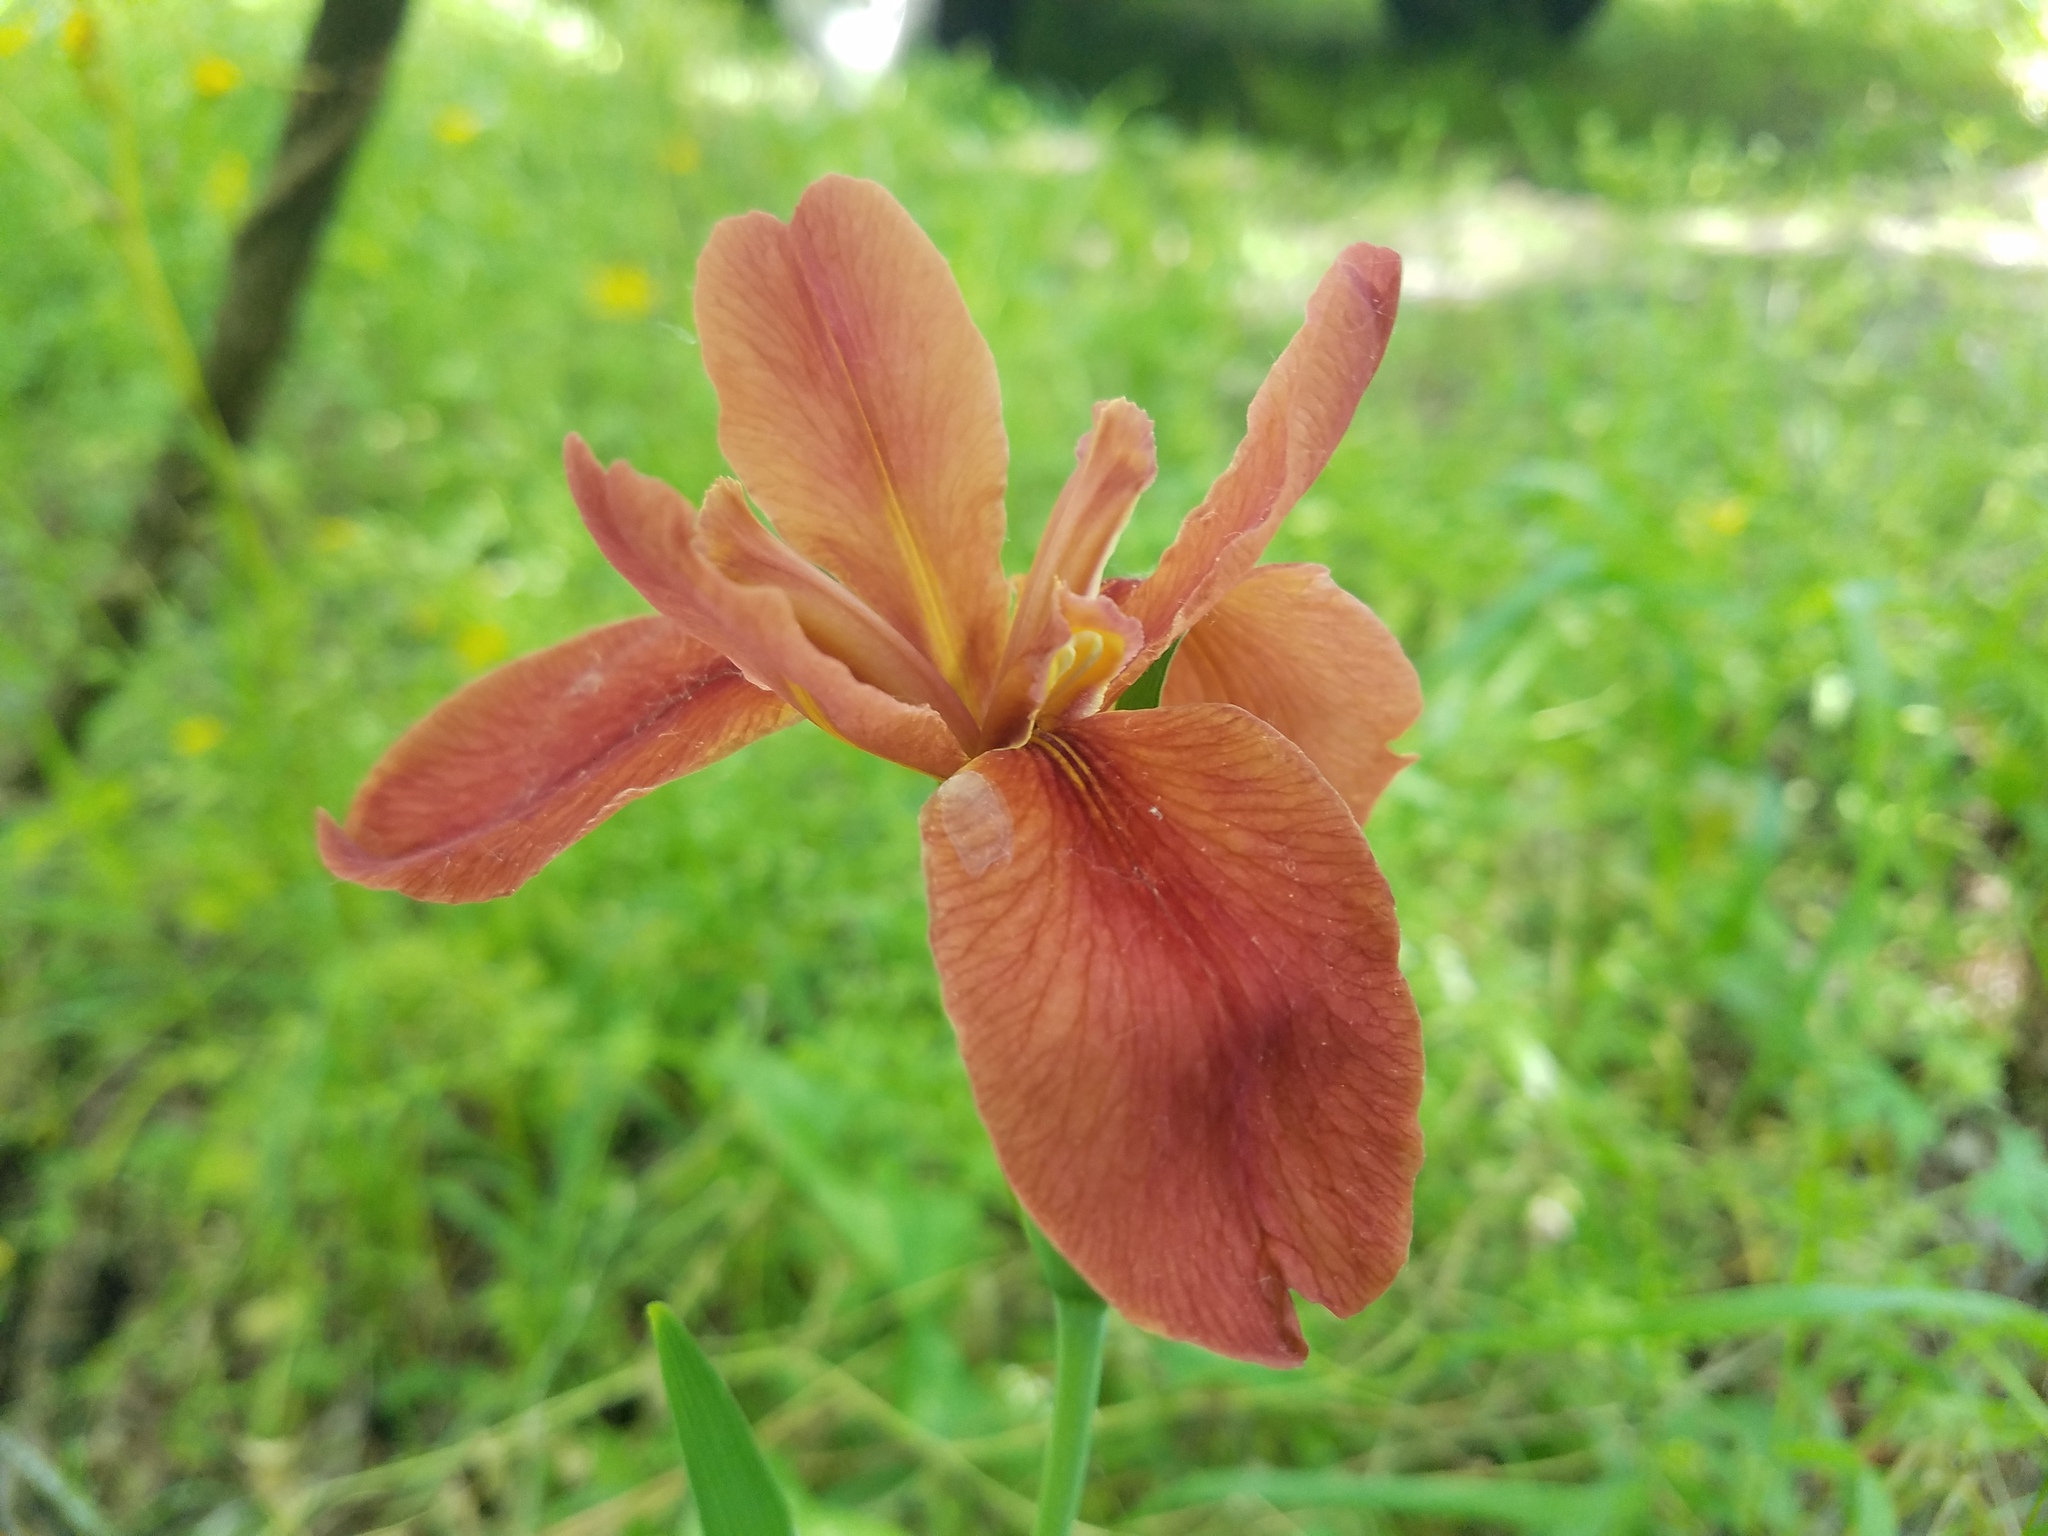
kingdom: Plantae
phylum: Tracheophyta
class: Liliopsida
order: Asparagales
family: Iridaceae
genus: Iris
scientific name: Iris fulva
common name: Copper iris
